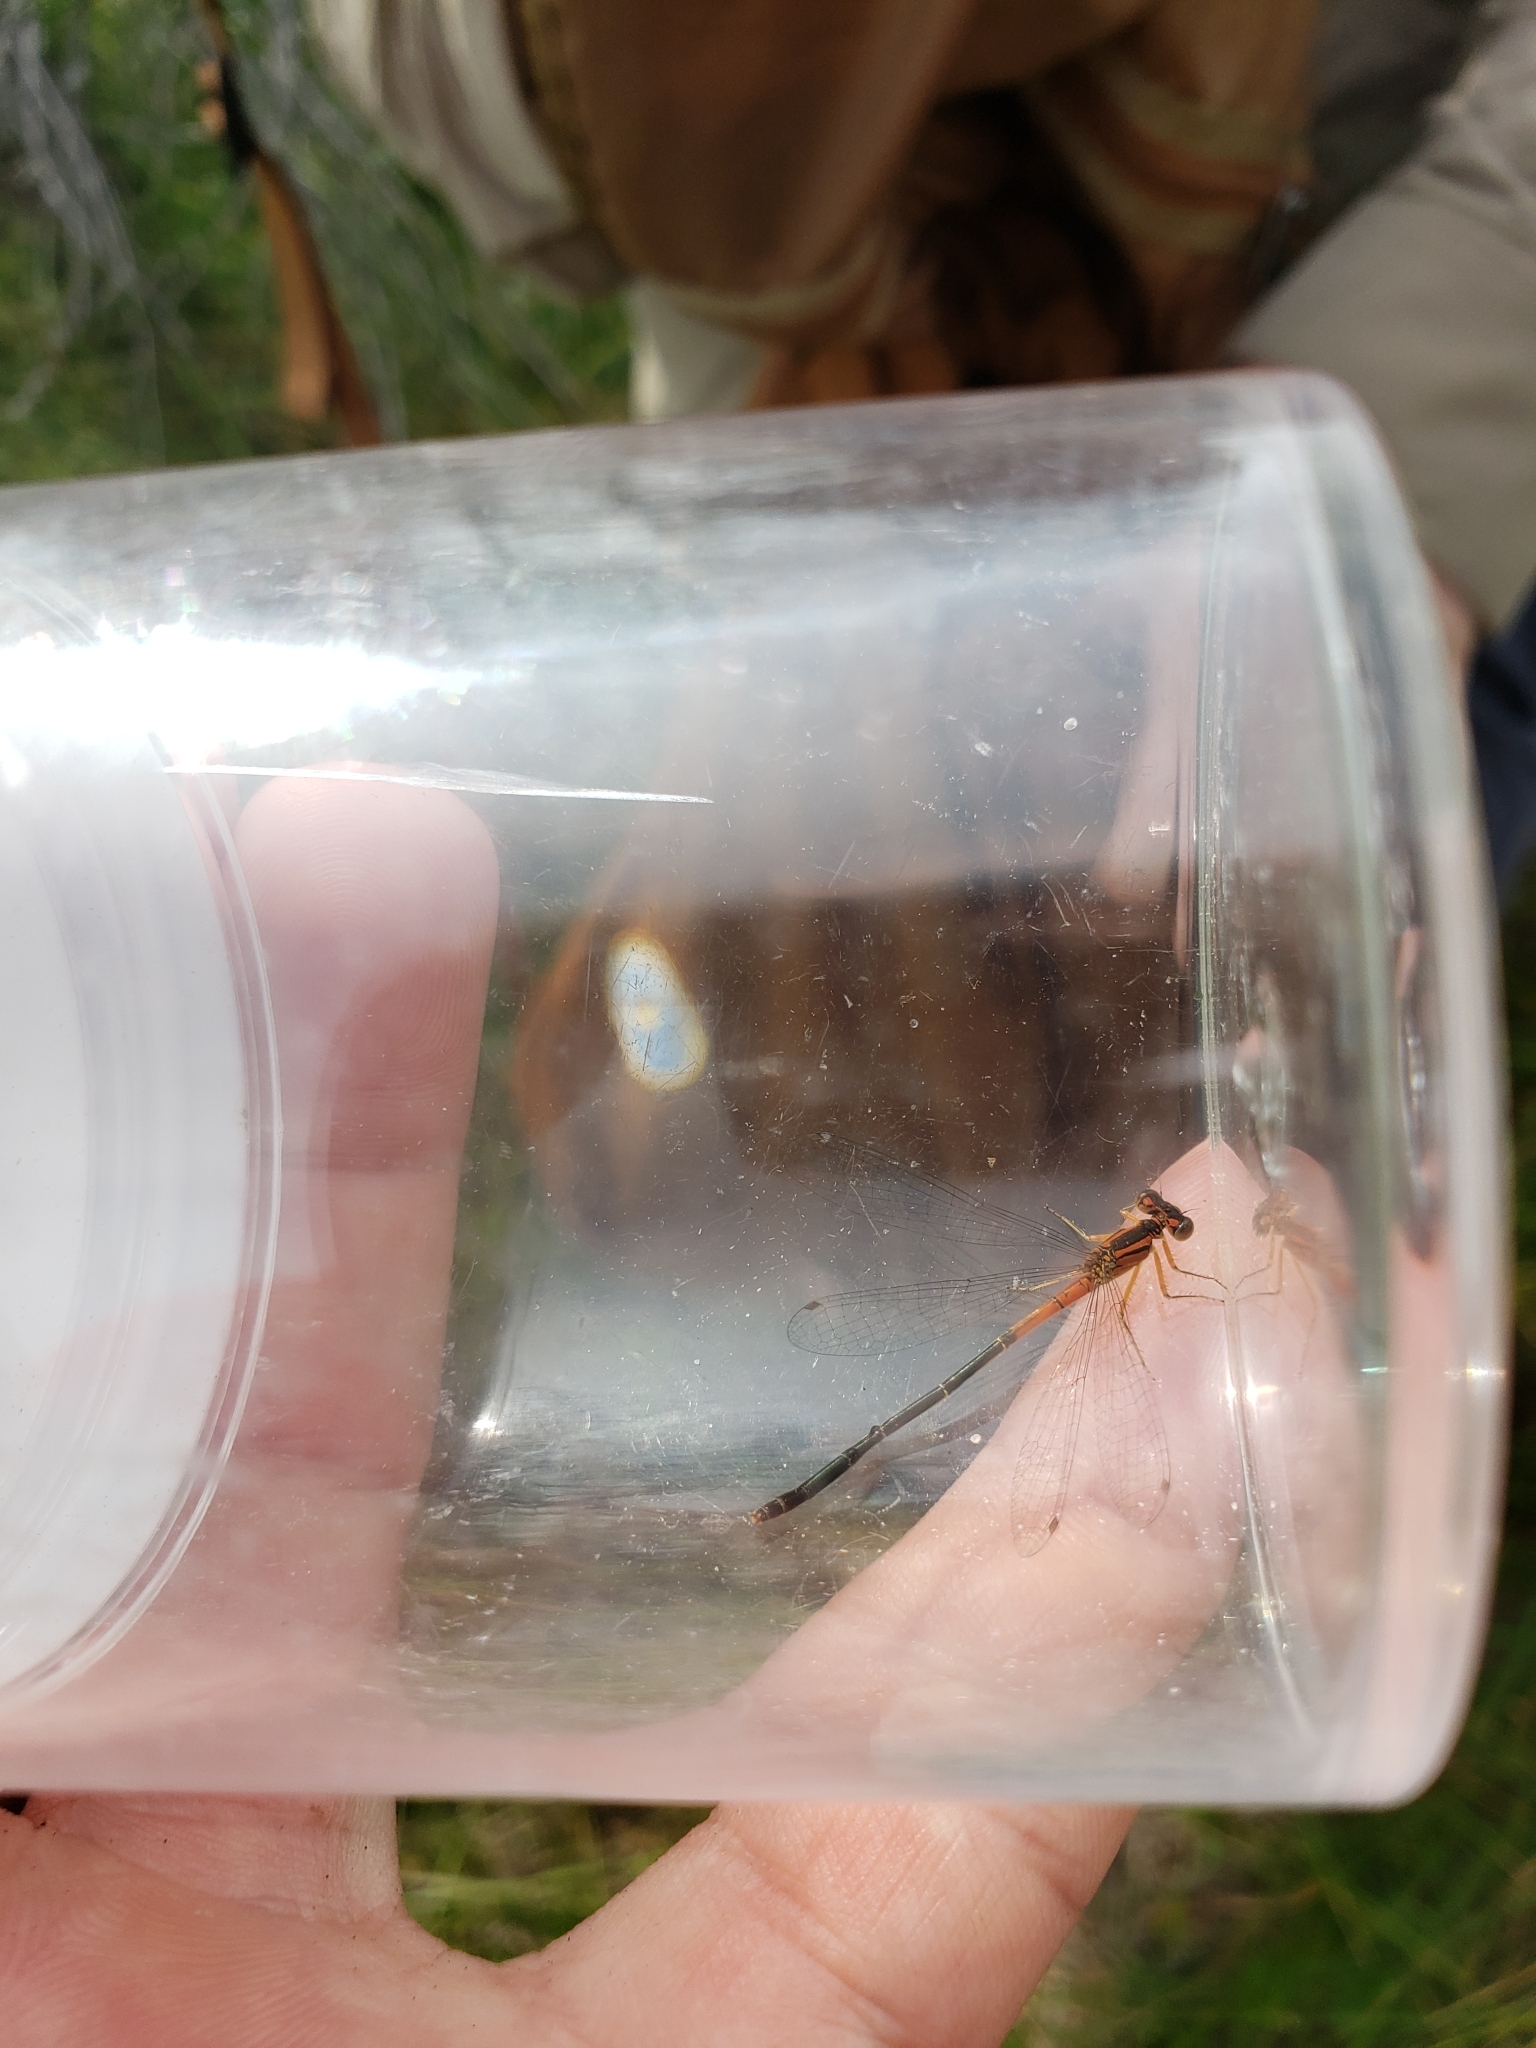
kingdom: Animalia
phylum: Arthropoda
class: Insecta
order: Odonata
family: Coenagrionidae
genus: Ischnura
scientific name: Ischnura verticalis
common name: Eastern forktail
